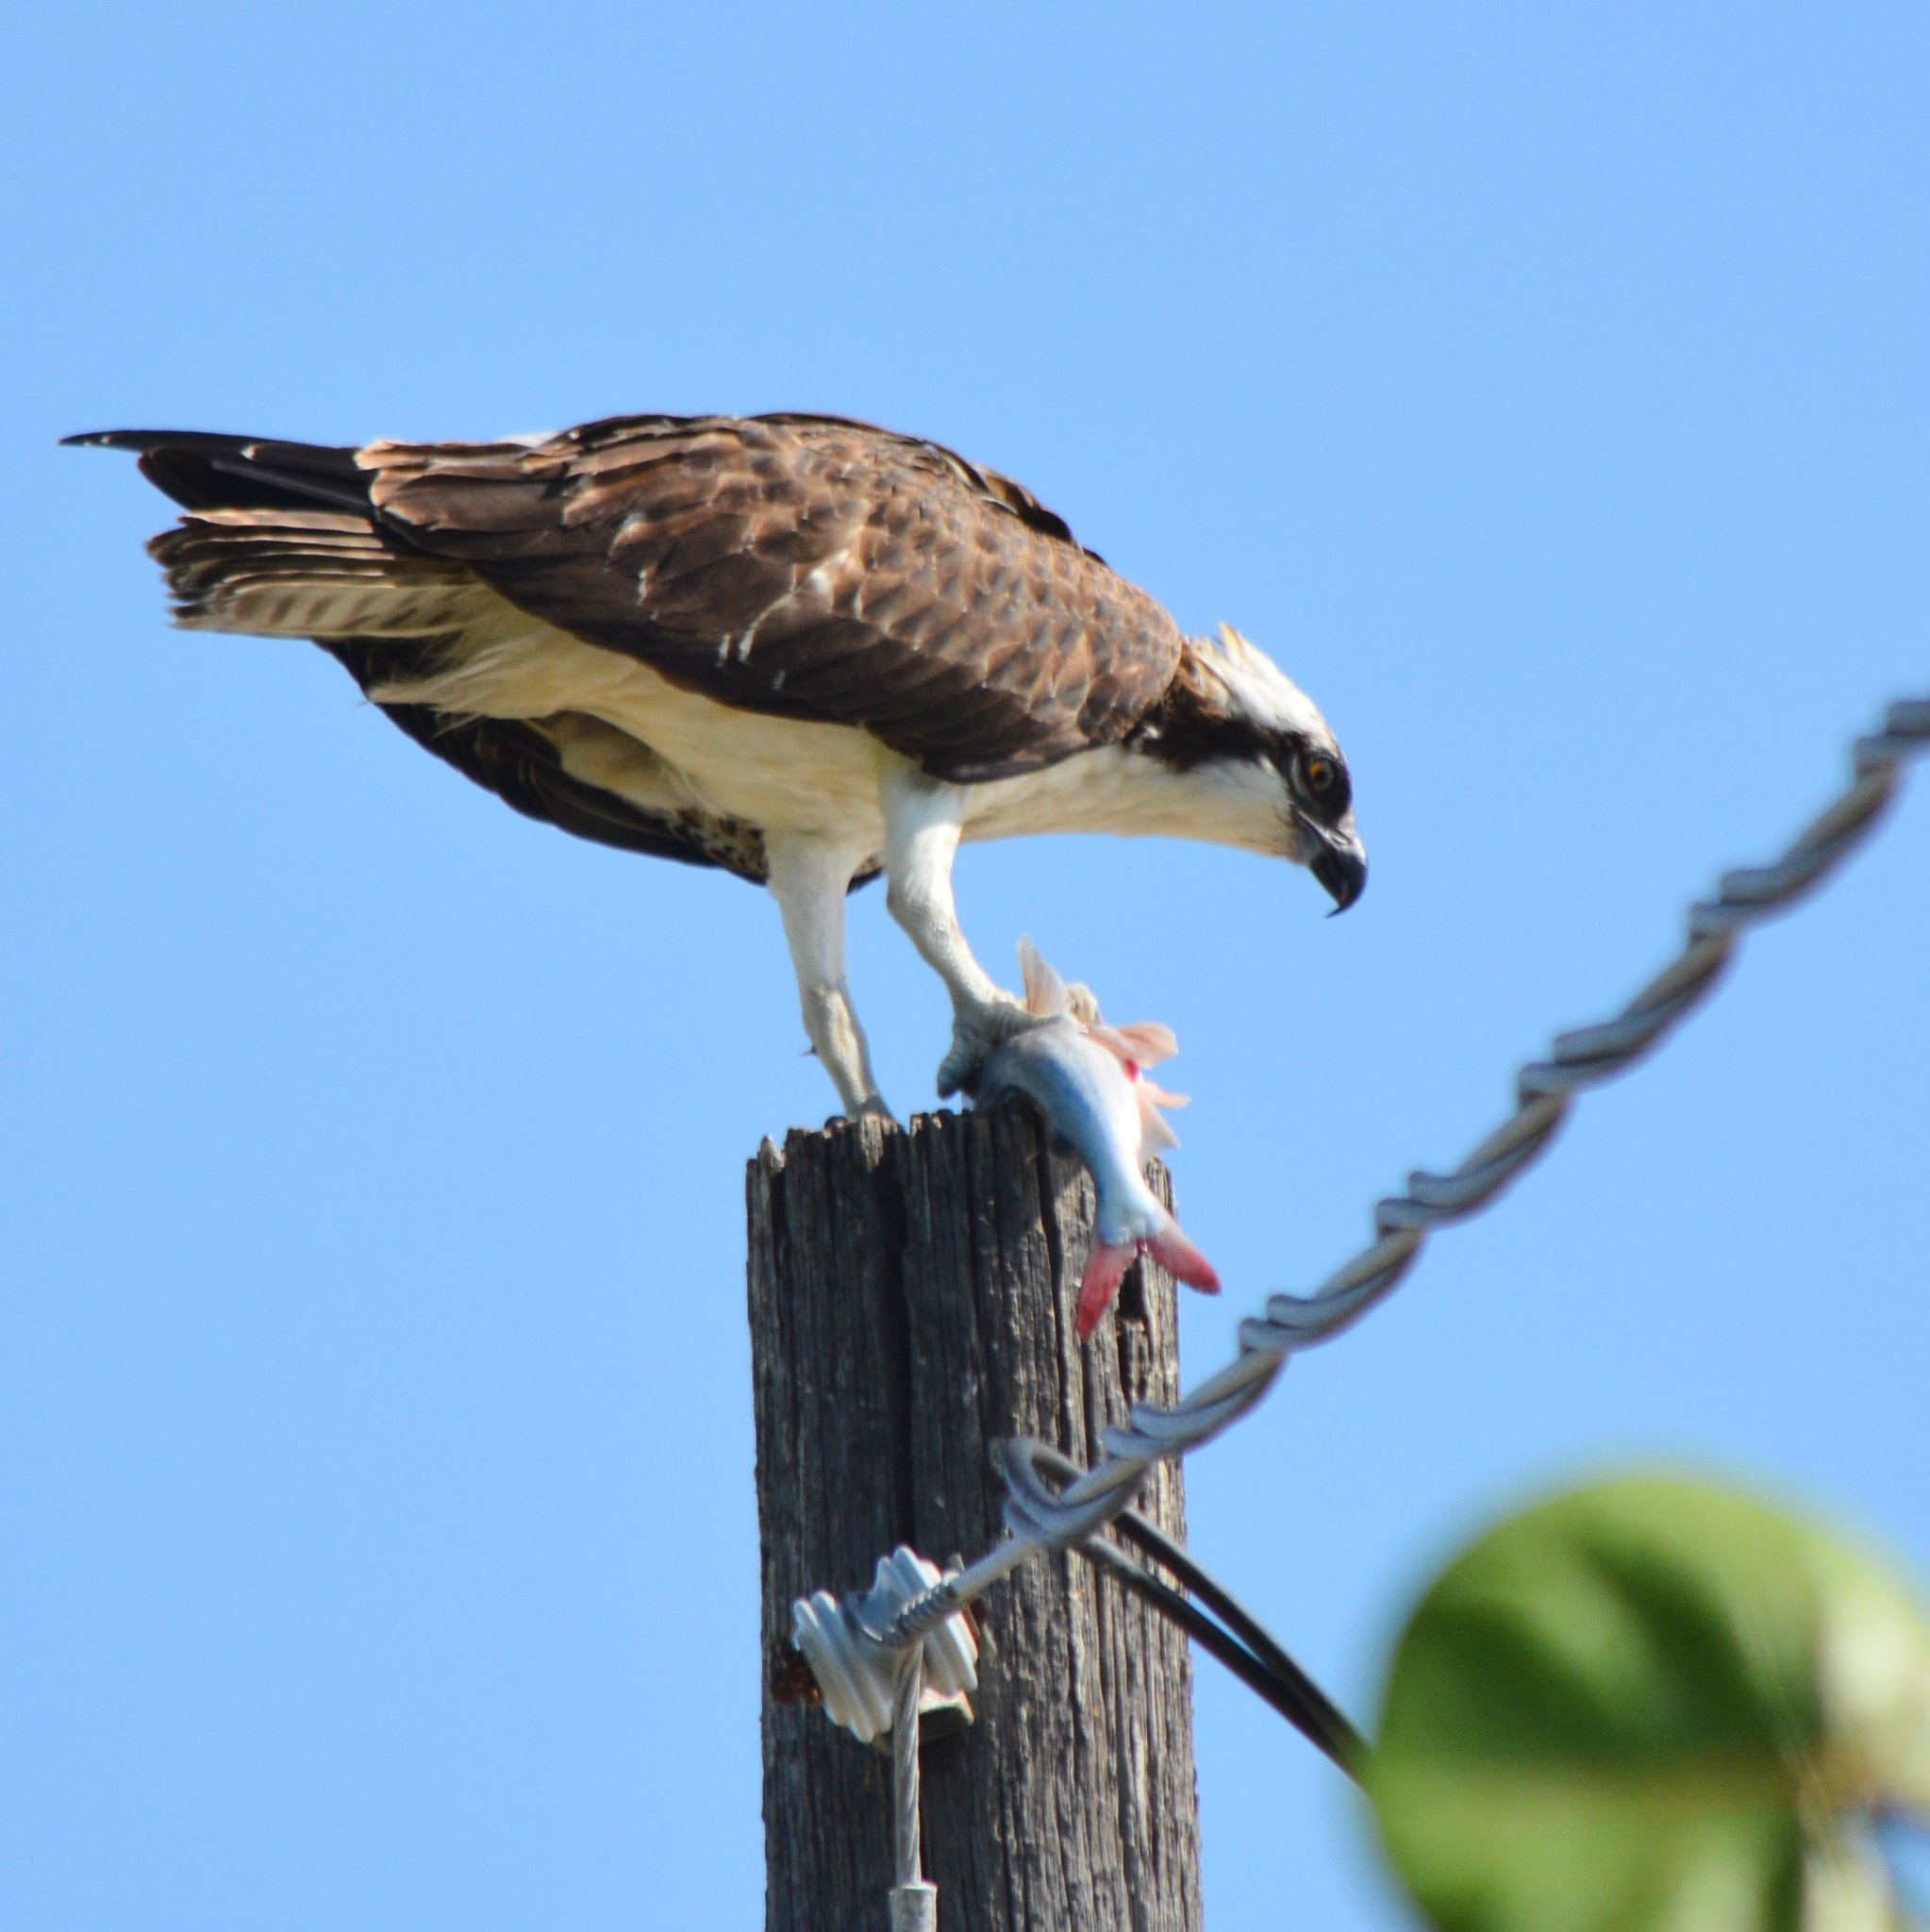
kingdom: Animalia
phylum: Chordata
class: Aves
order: Accipitriformes
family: Pandionidae
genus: Pandion
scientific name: Pandion haliaetus
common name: Osprey
